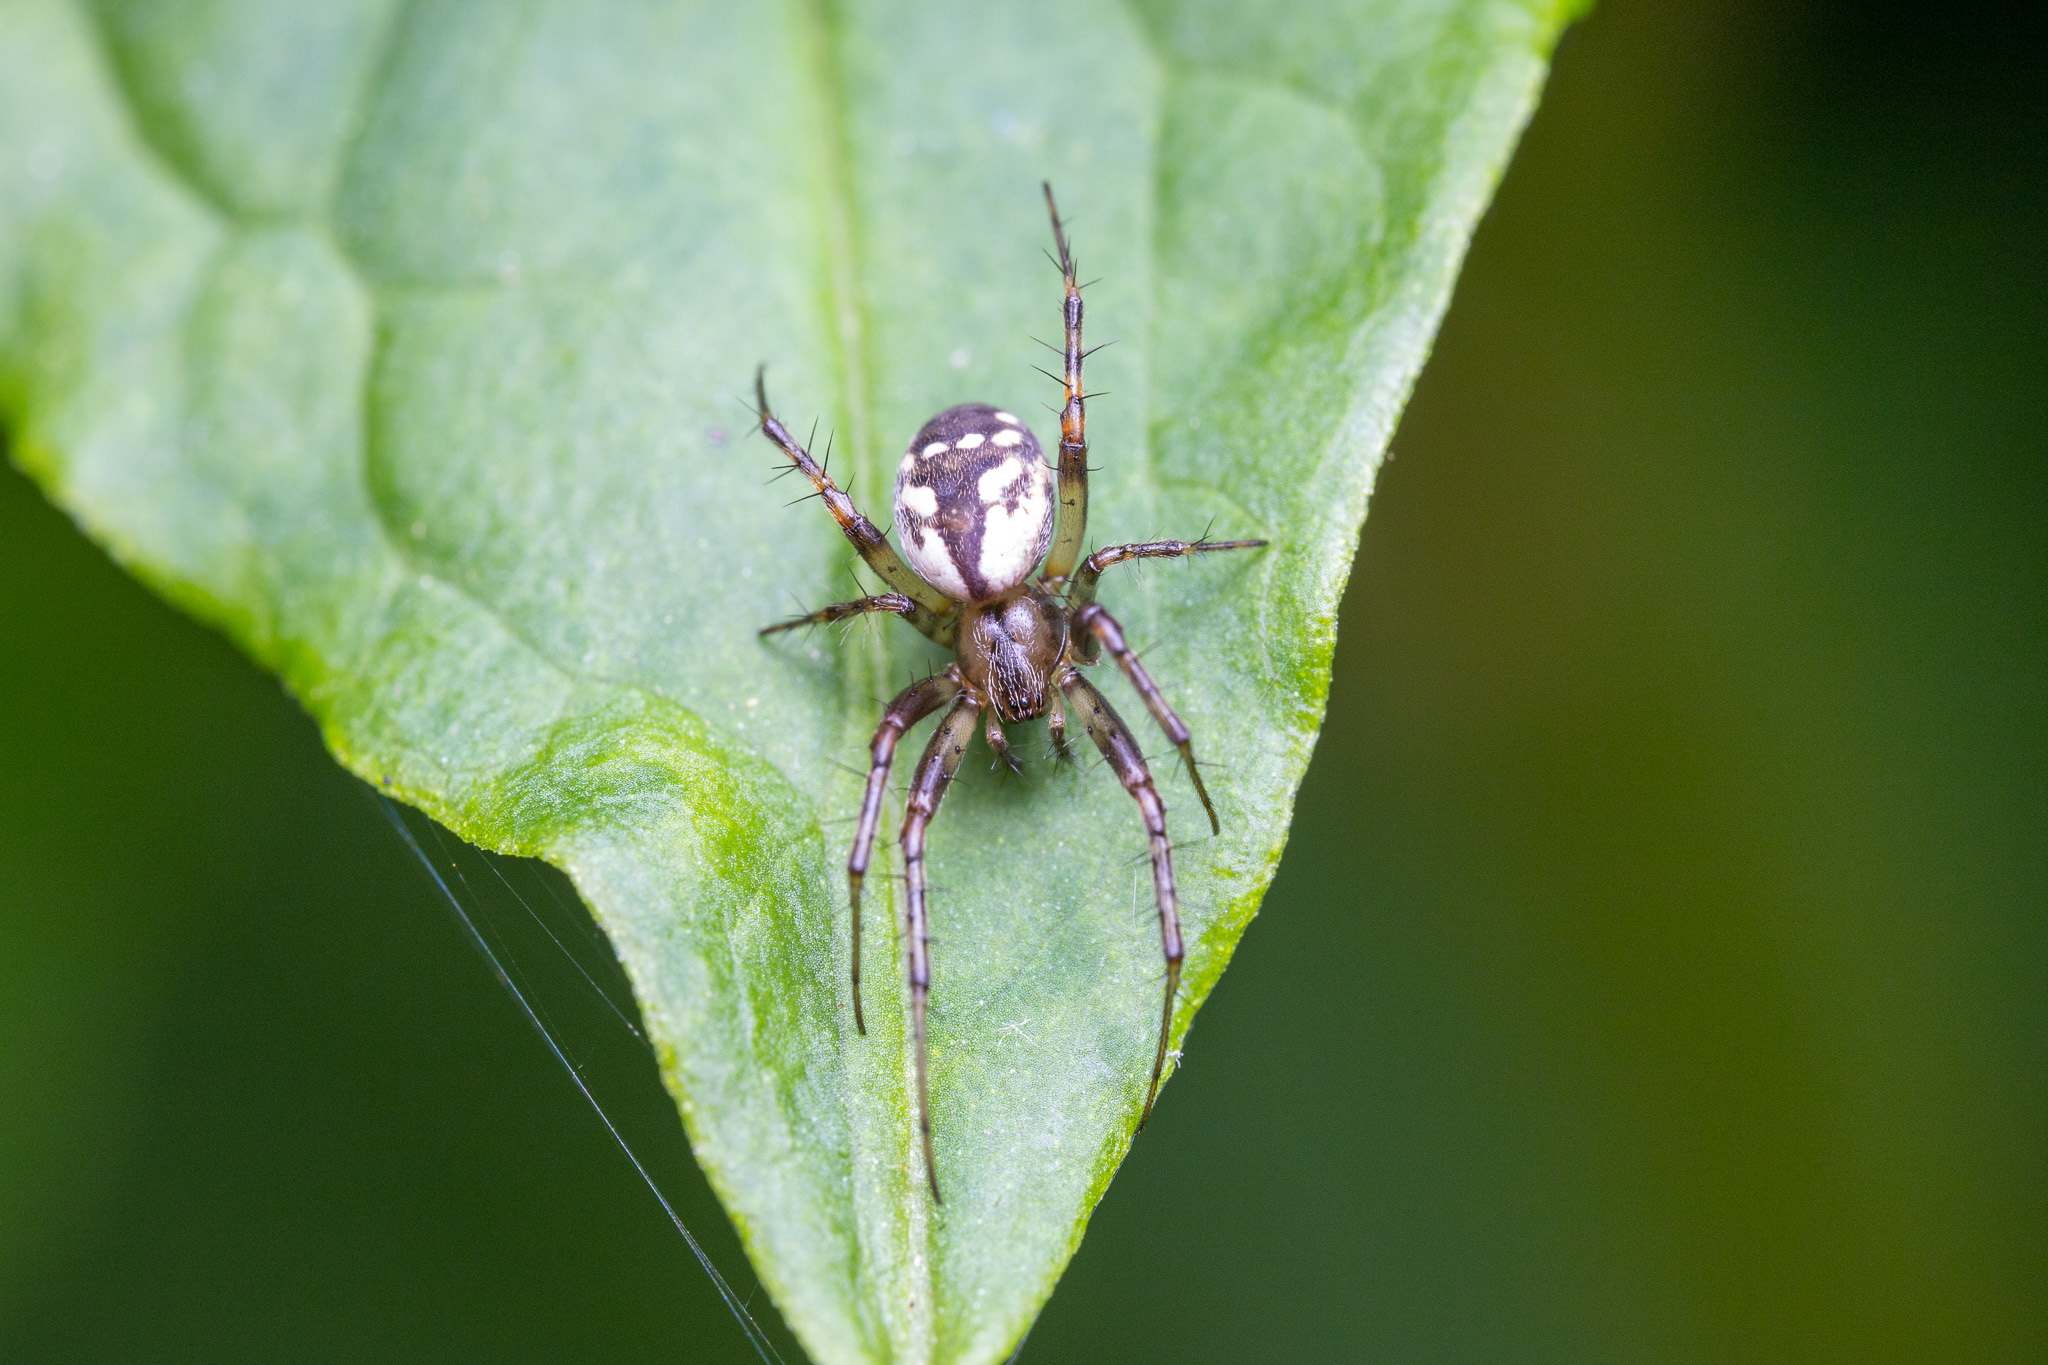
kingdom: Animalia
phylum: Arthropoda
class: Arachnida
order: Araneae
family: Araneidae
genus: Mangora
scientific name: Mangora placida
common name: Tuft-legged orbweaver
